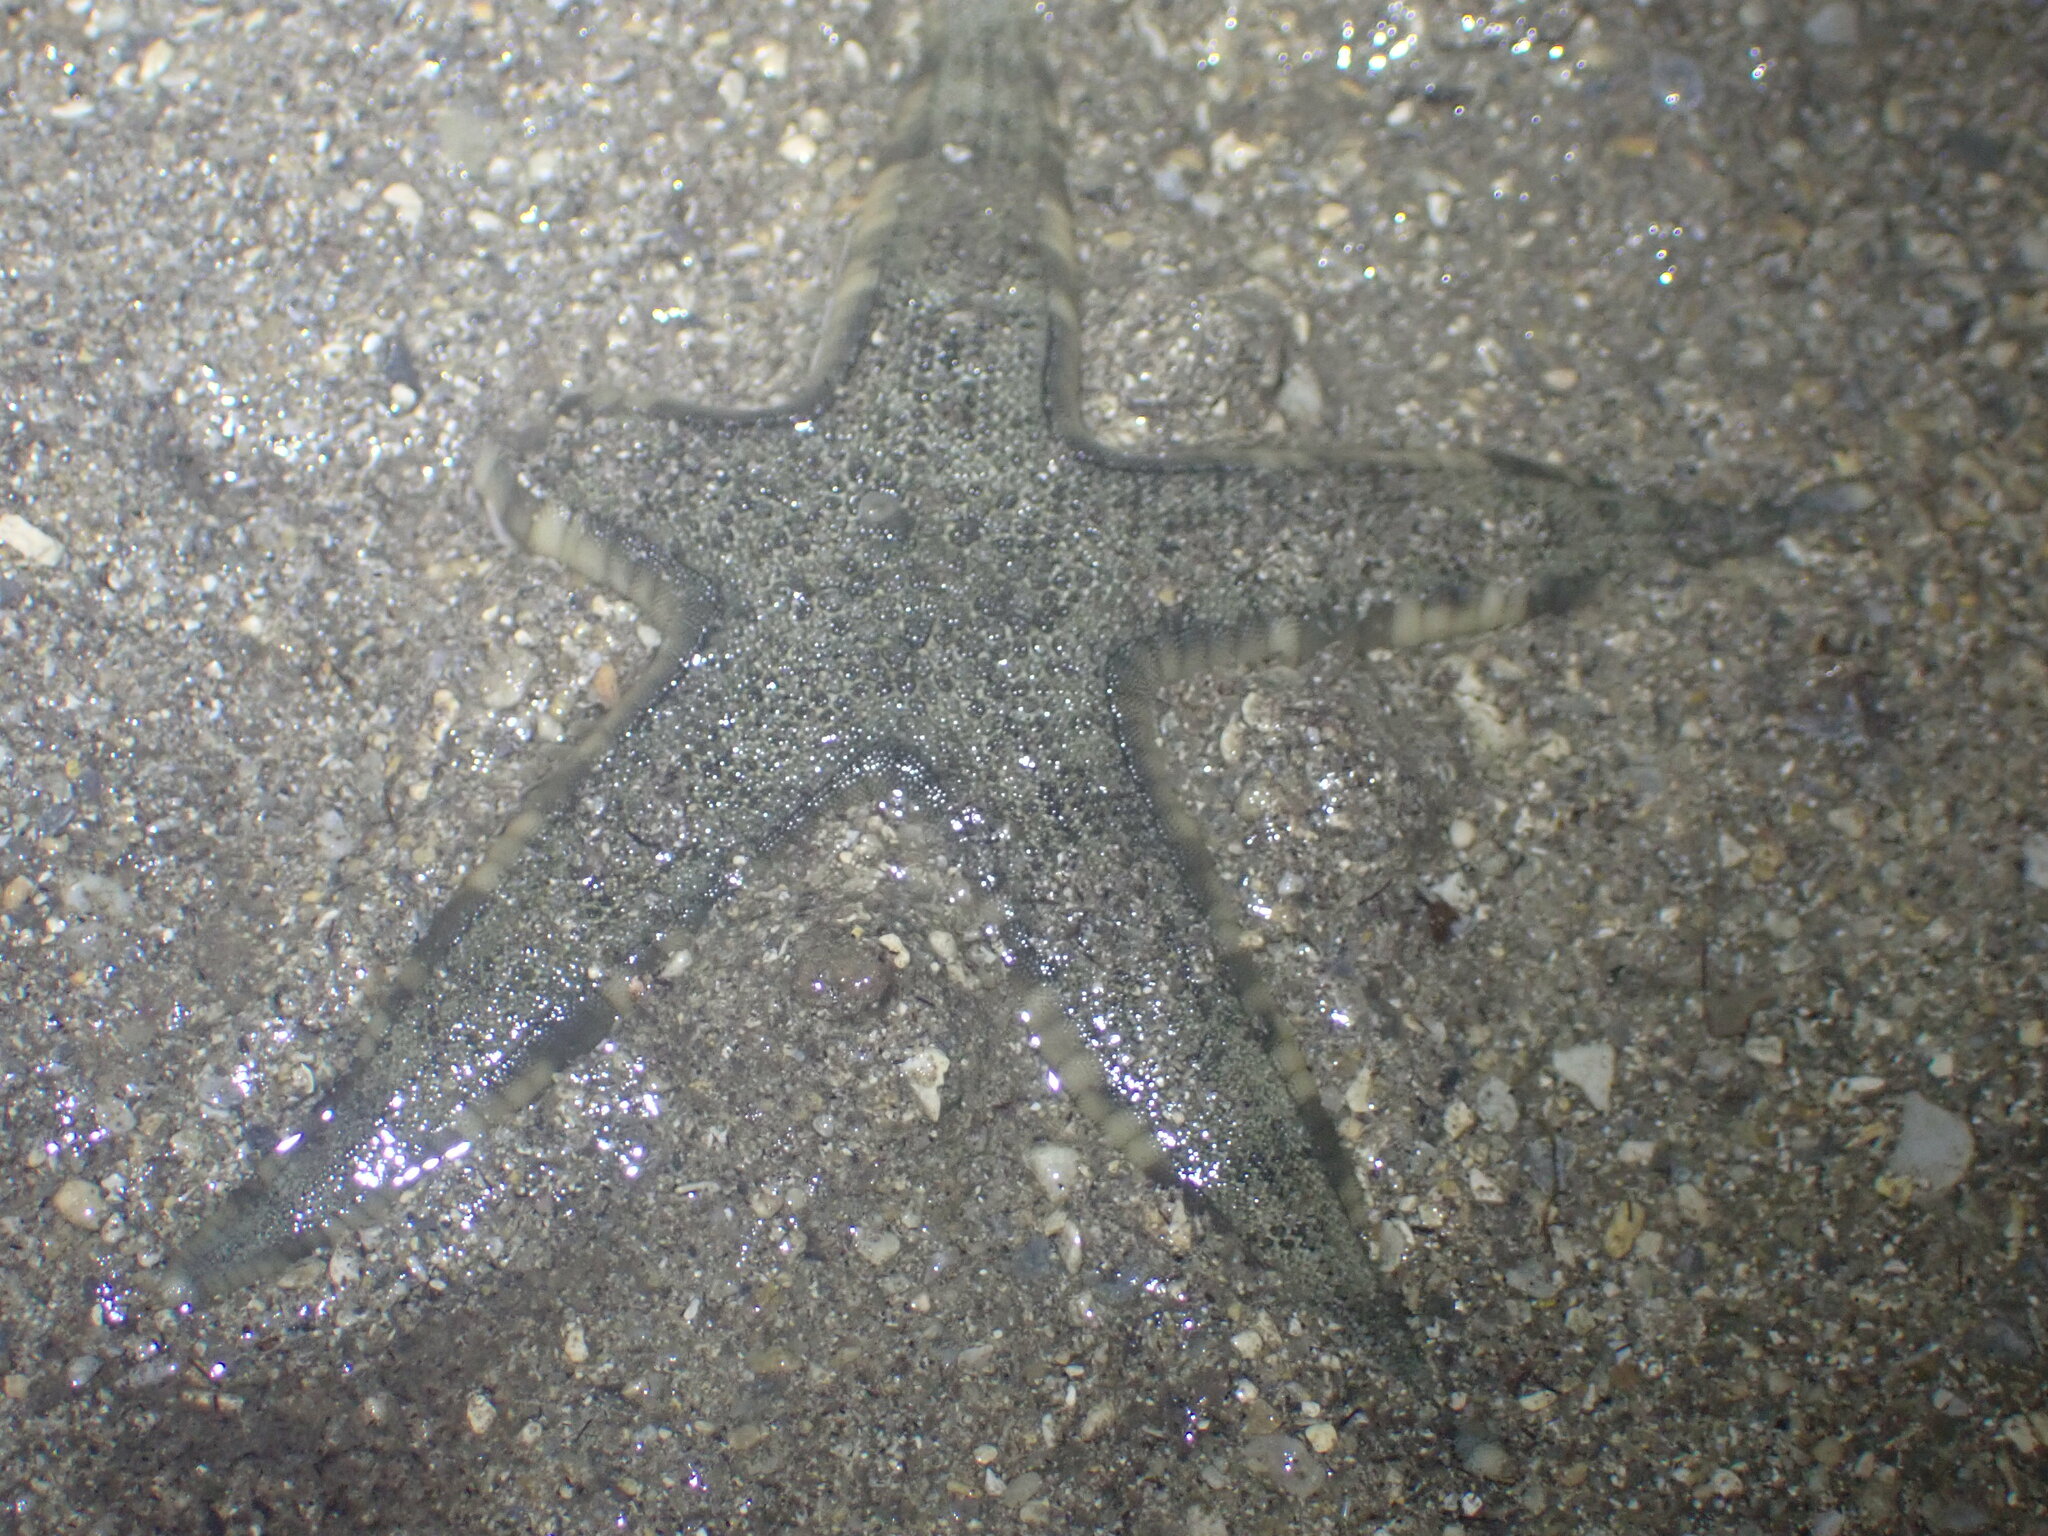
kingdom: Animalia
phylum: Echinodermata
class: Asteroidea
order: Valvatida
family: Archasteridae
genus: Archaster
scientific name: Archaster typicus
